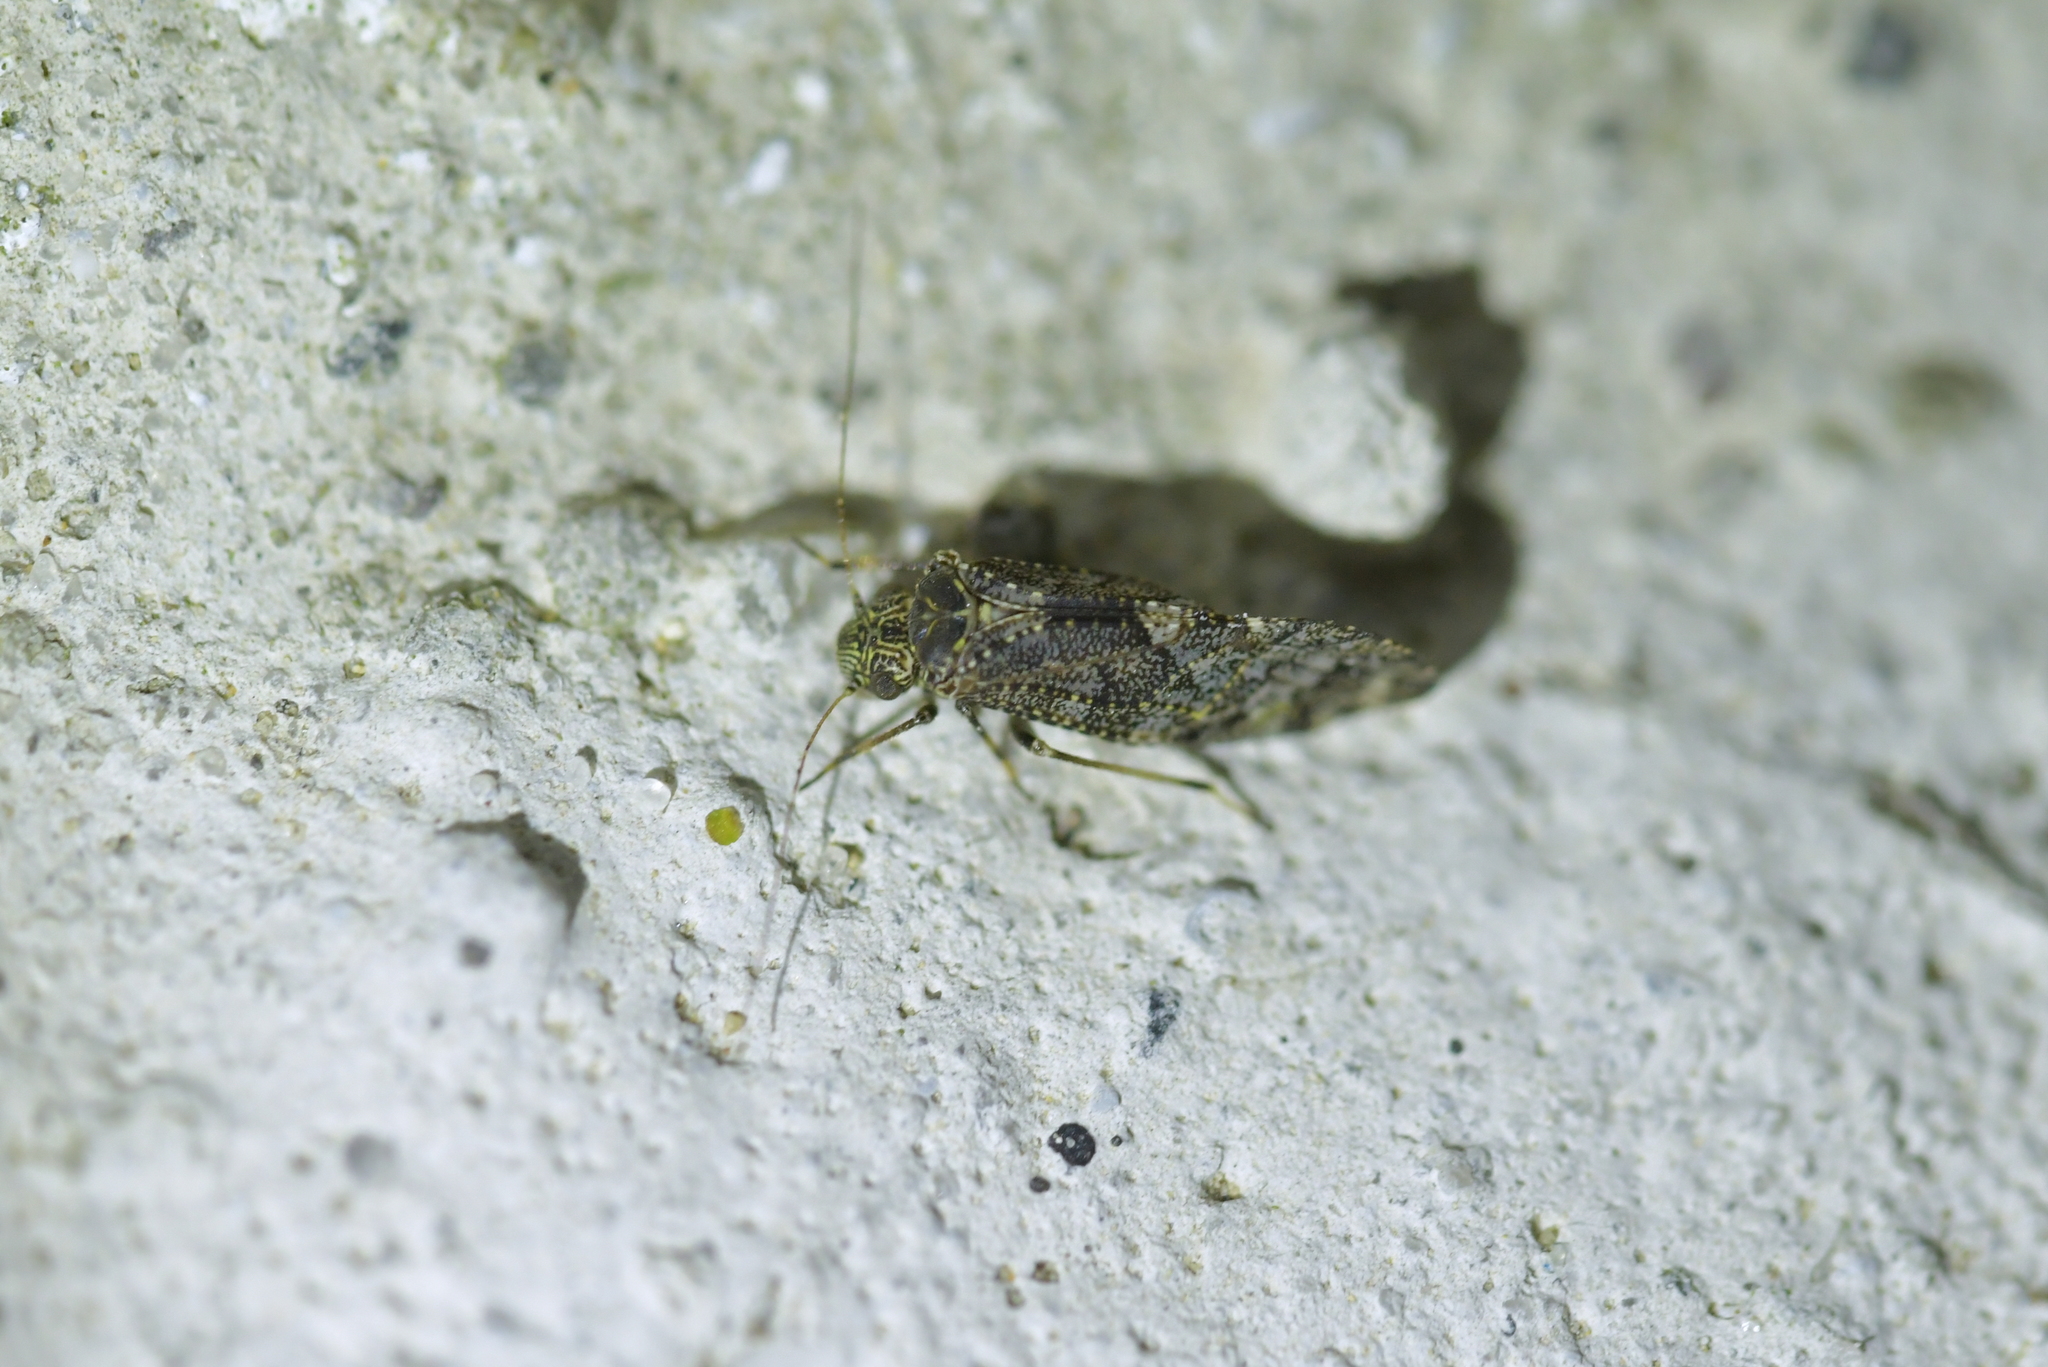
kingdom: Animalia
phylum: Arthropoda
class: Insecta
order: Psocodea
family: Myopsocidae
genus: Nimbopsocus
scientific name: Nimbopsocus australis
